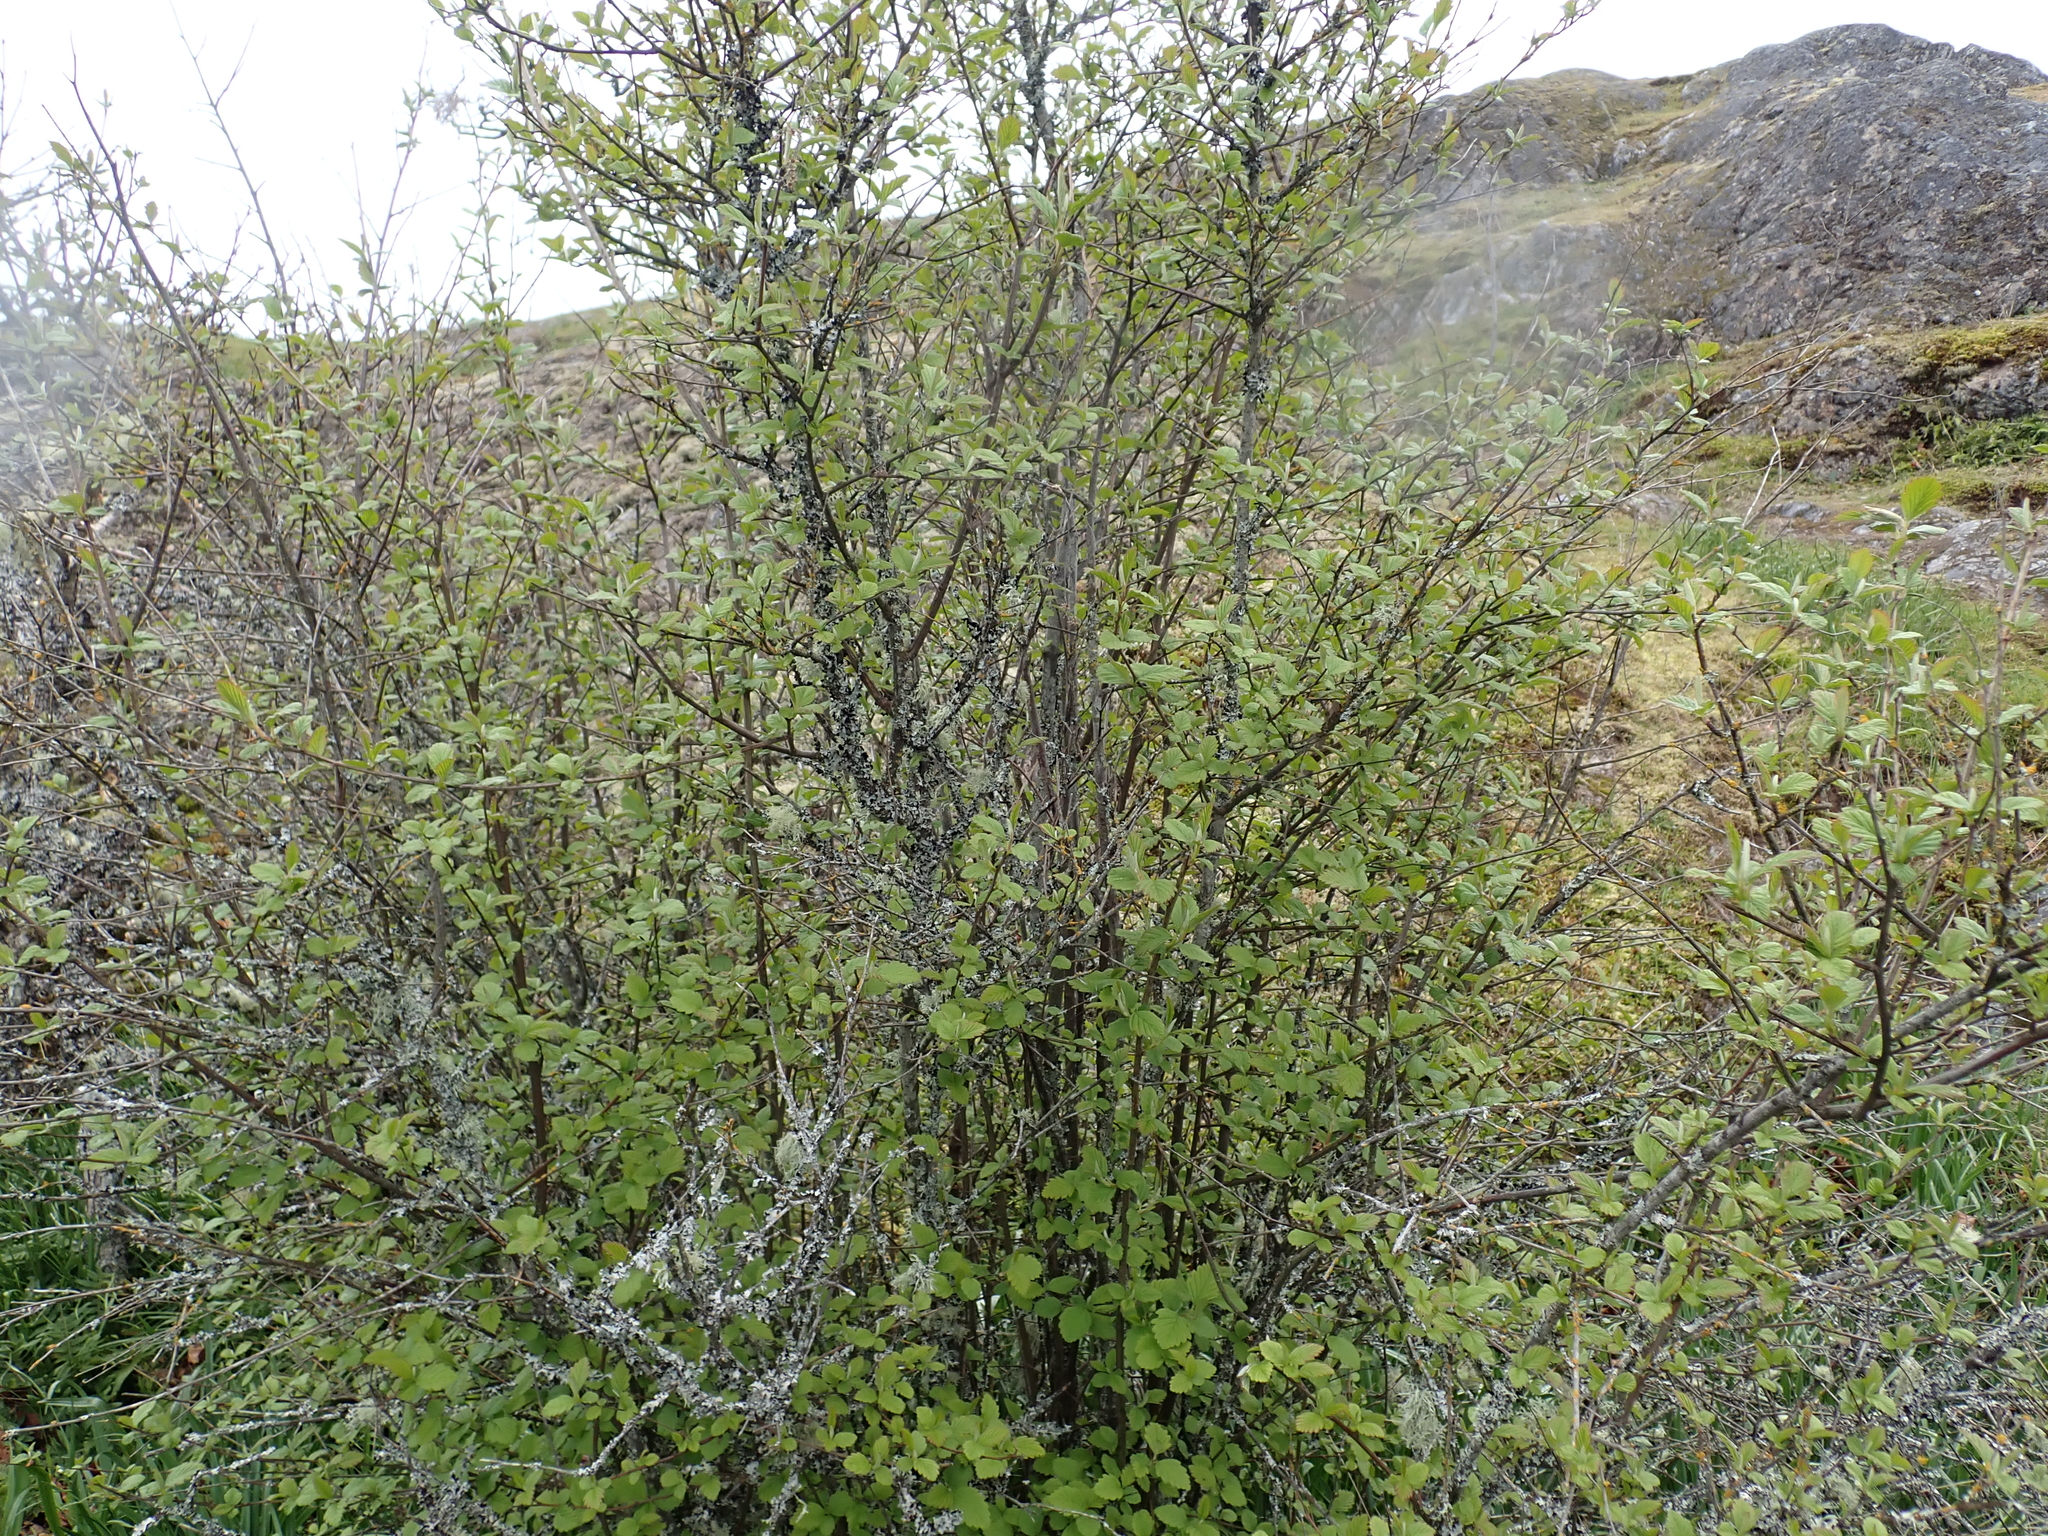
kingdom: Plantae
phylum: Tracheophyta
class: Magnoliopsida
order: Rosales
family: Rosaceae
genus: Holodiscus
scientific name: Holodiscus discolor
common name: Oceanspray
